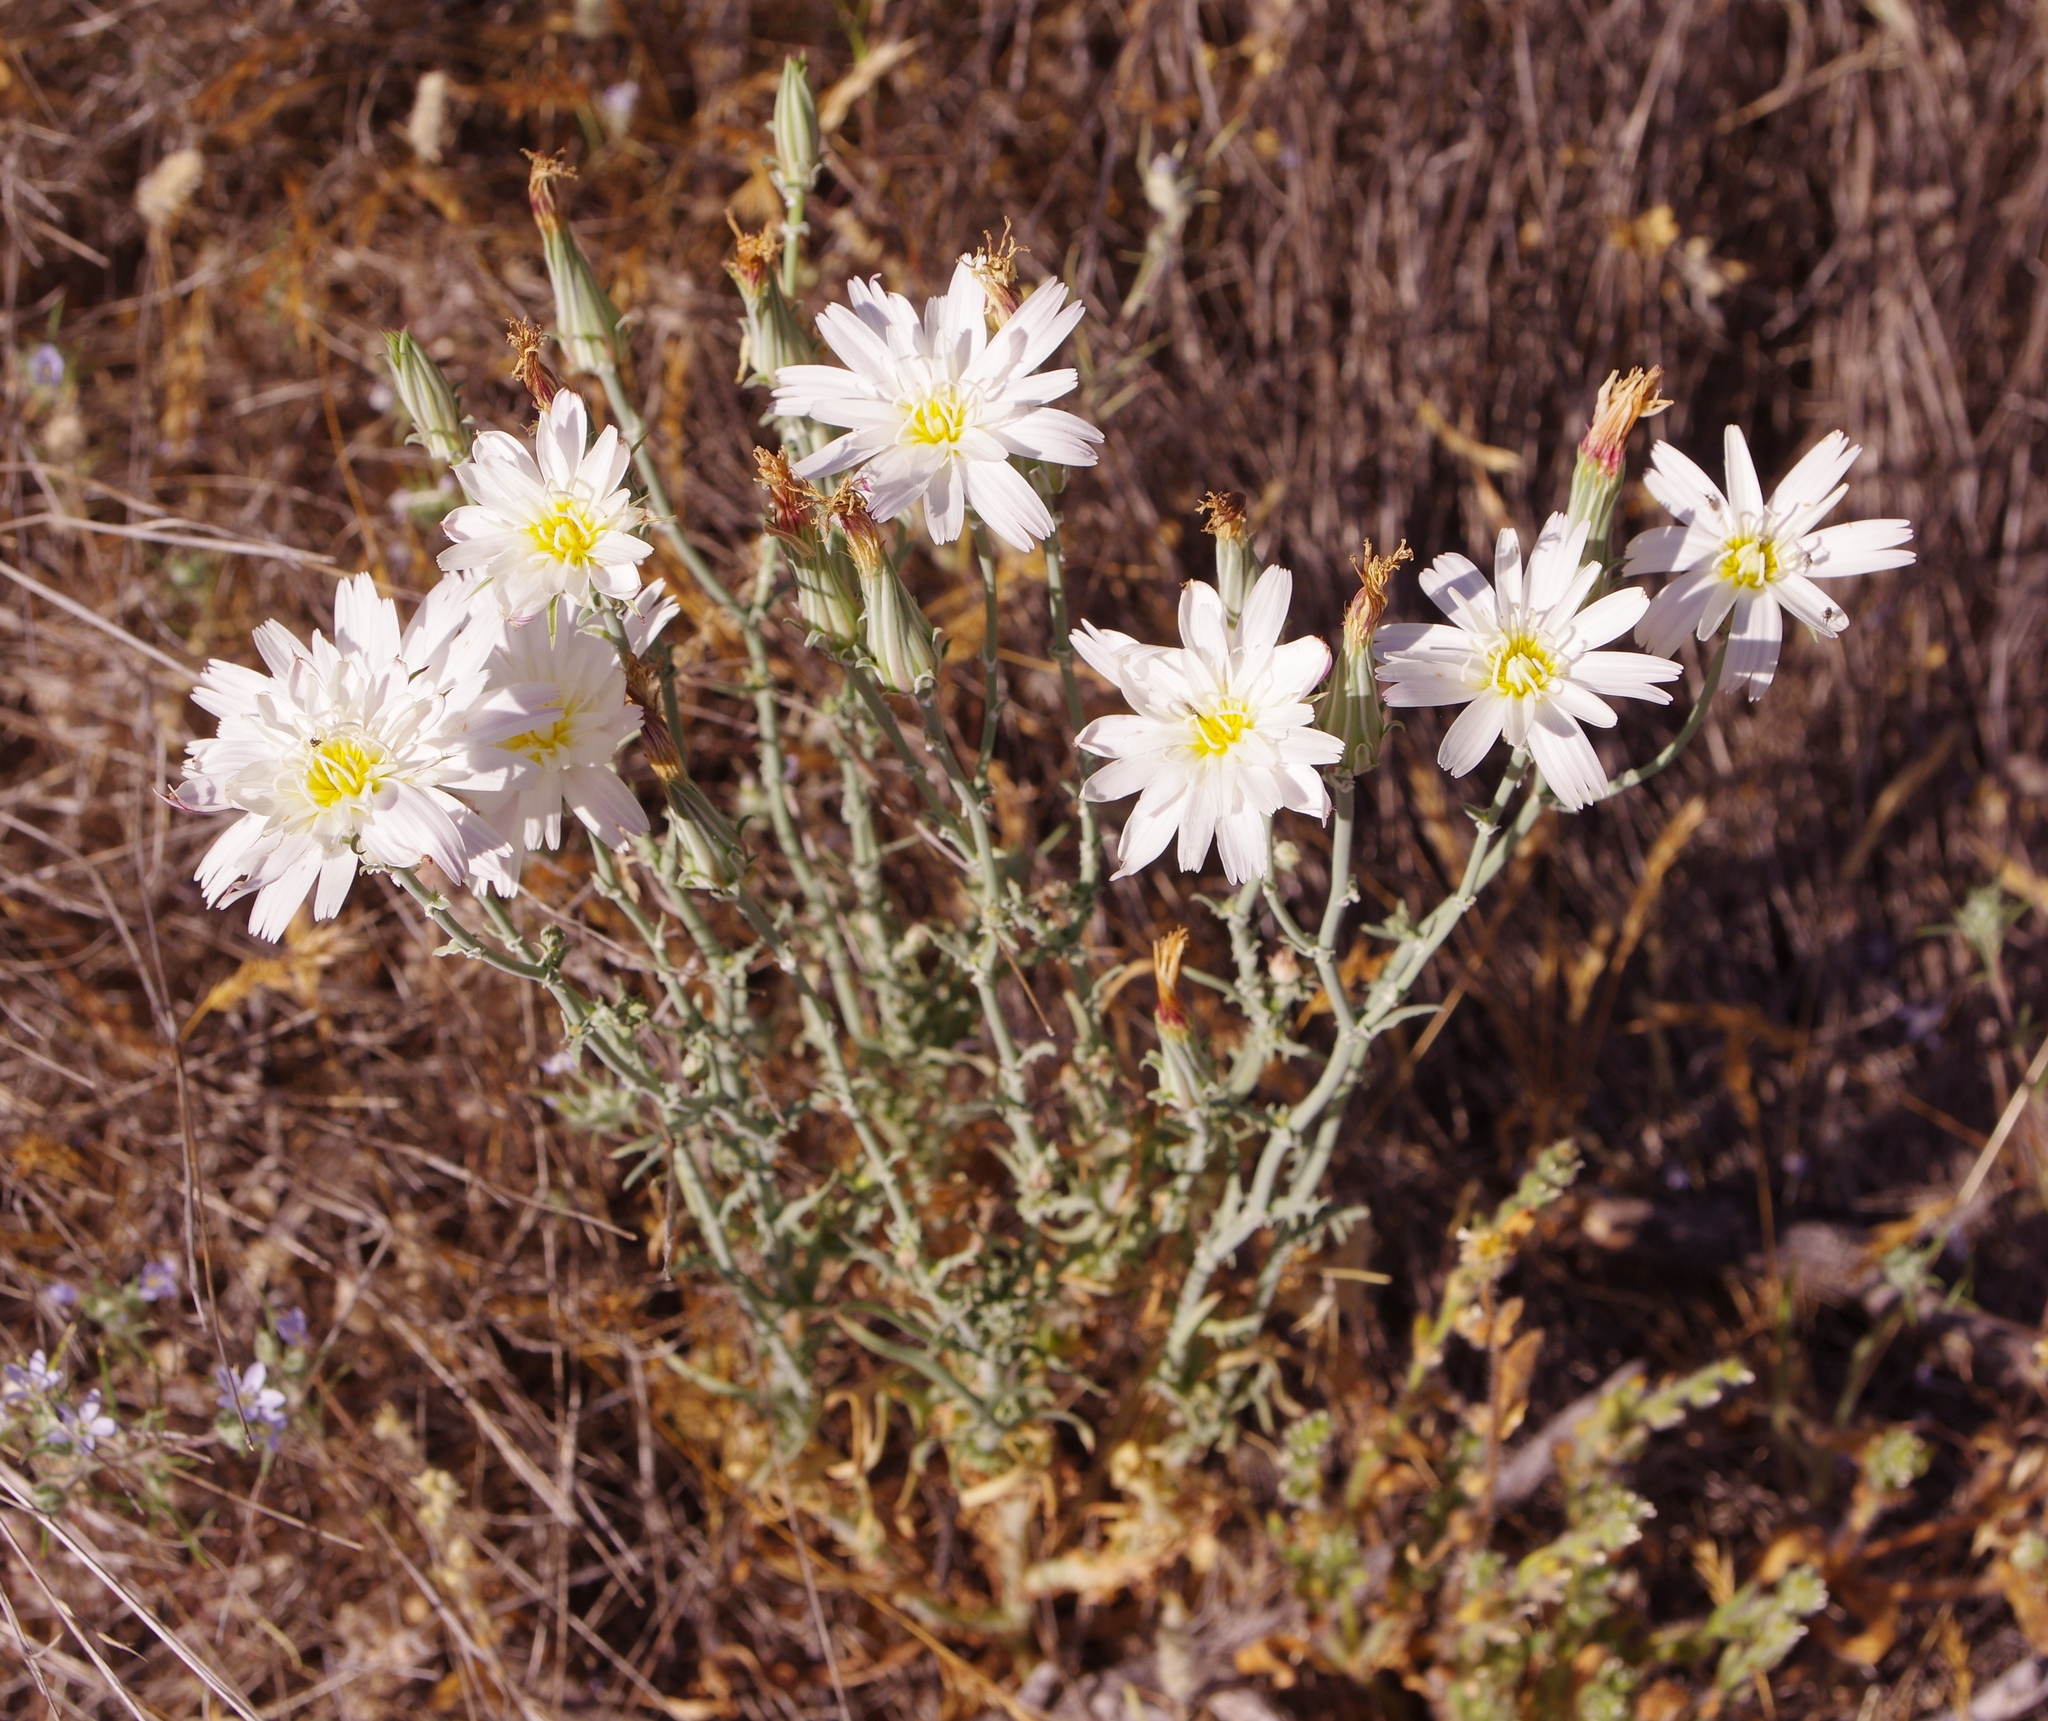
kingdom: Plantae
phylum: Tracheophyta
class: Magnoliopsida
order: Asterales
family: Asteraceae
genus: Rafinesquia
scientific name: Rafinesquia neomexicana
